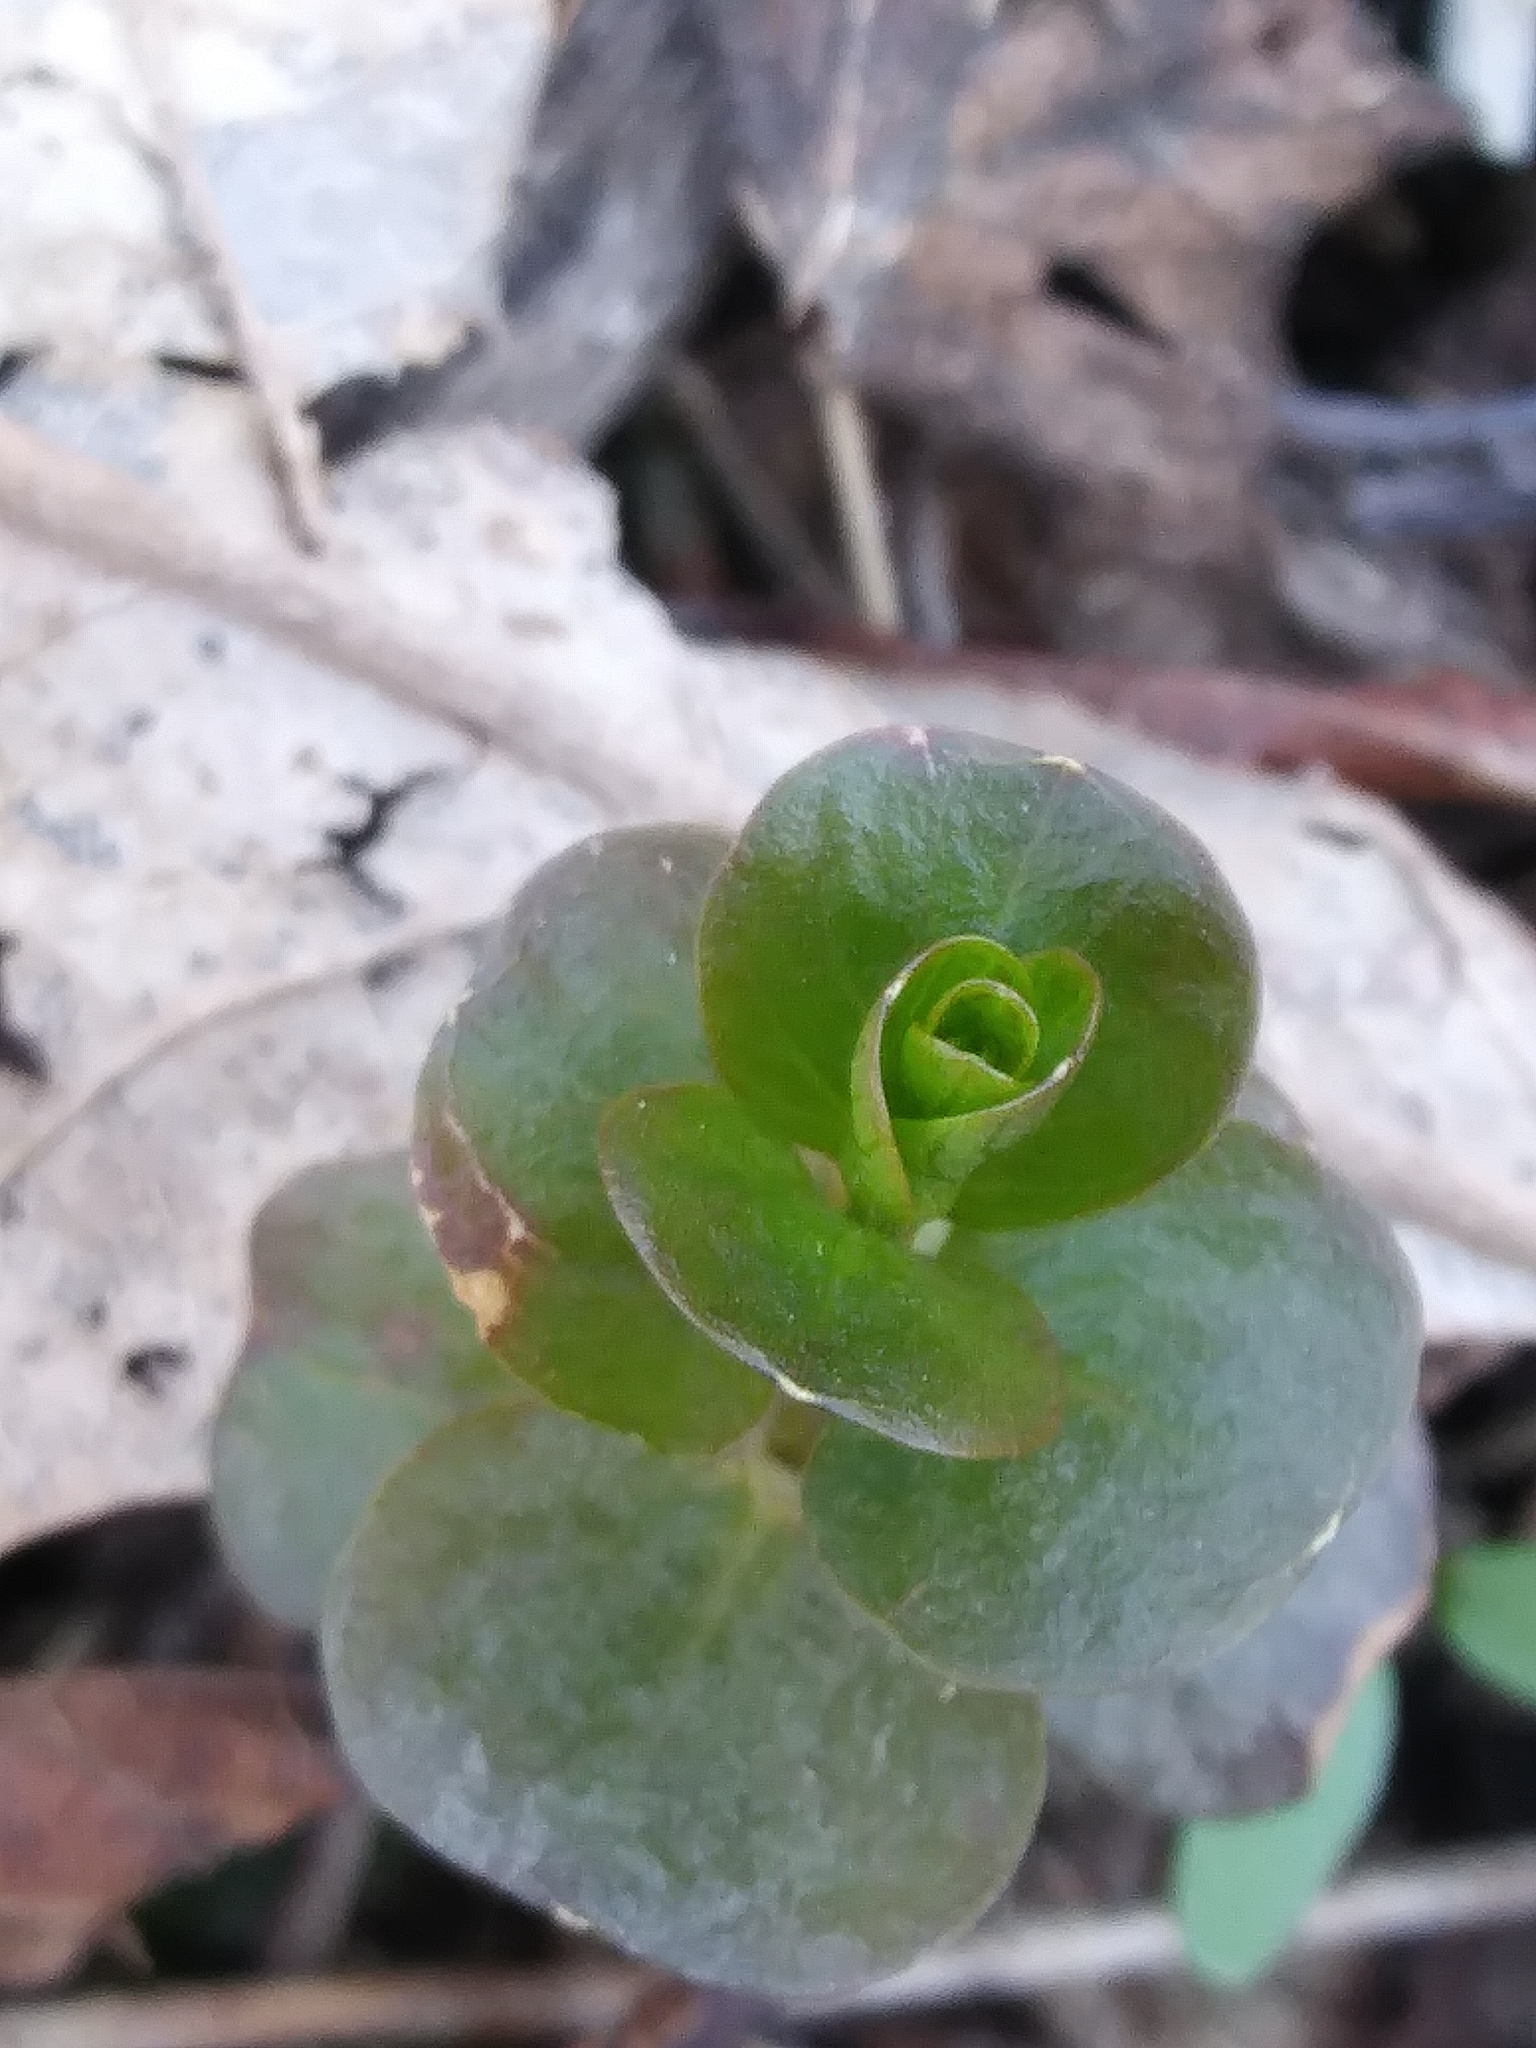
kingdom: Plantae
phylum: Tracheophyta
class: Magnoliopsida
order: Ericales
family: Primulaceae
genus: Lysimachia
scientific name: Lysimachia nummularia
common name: Moneywort
